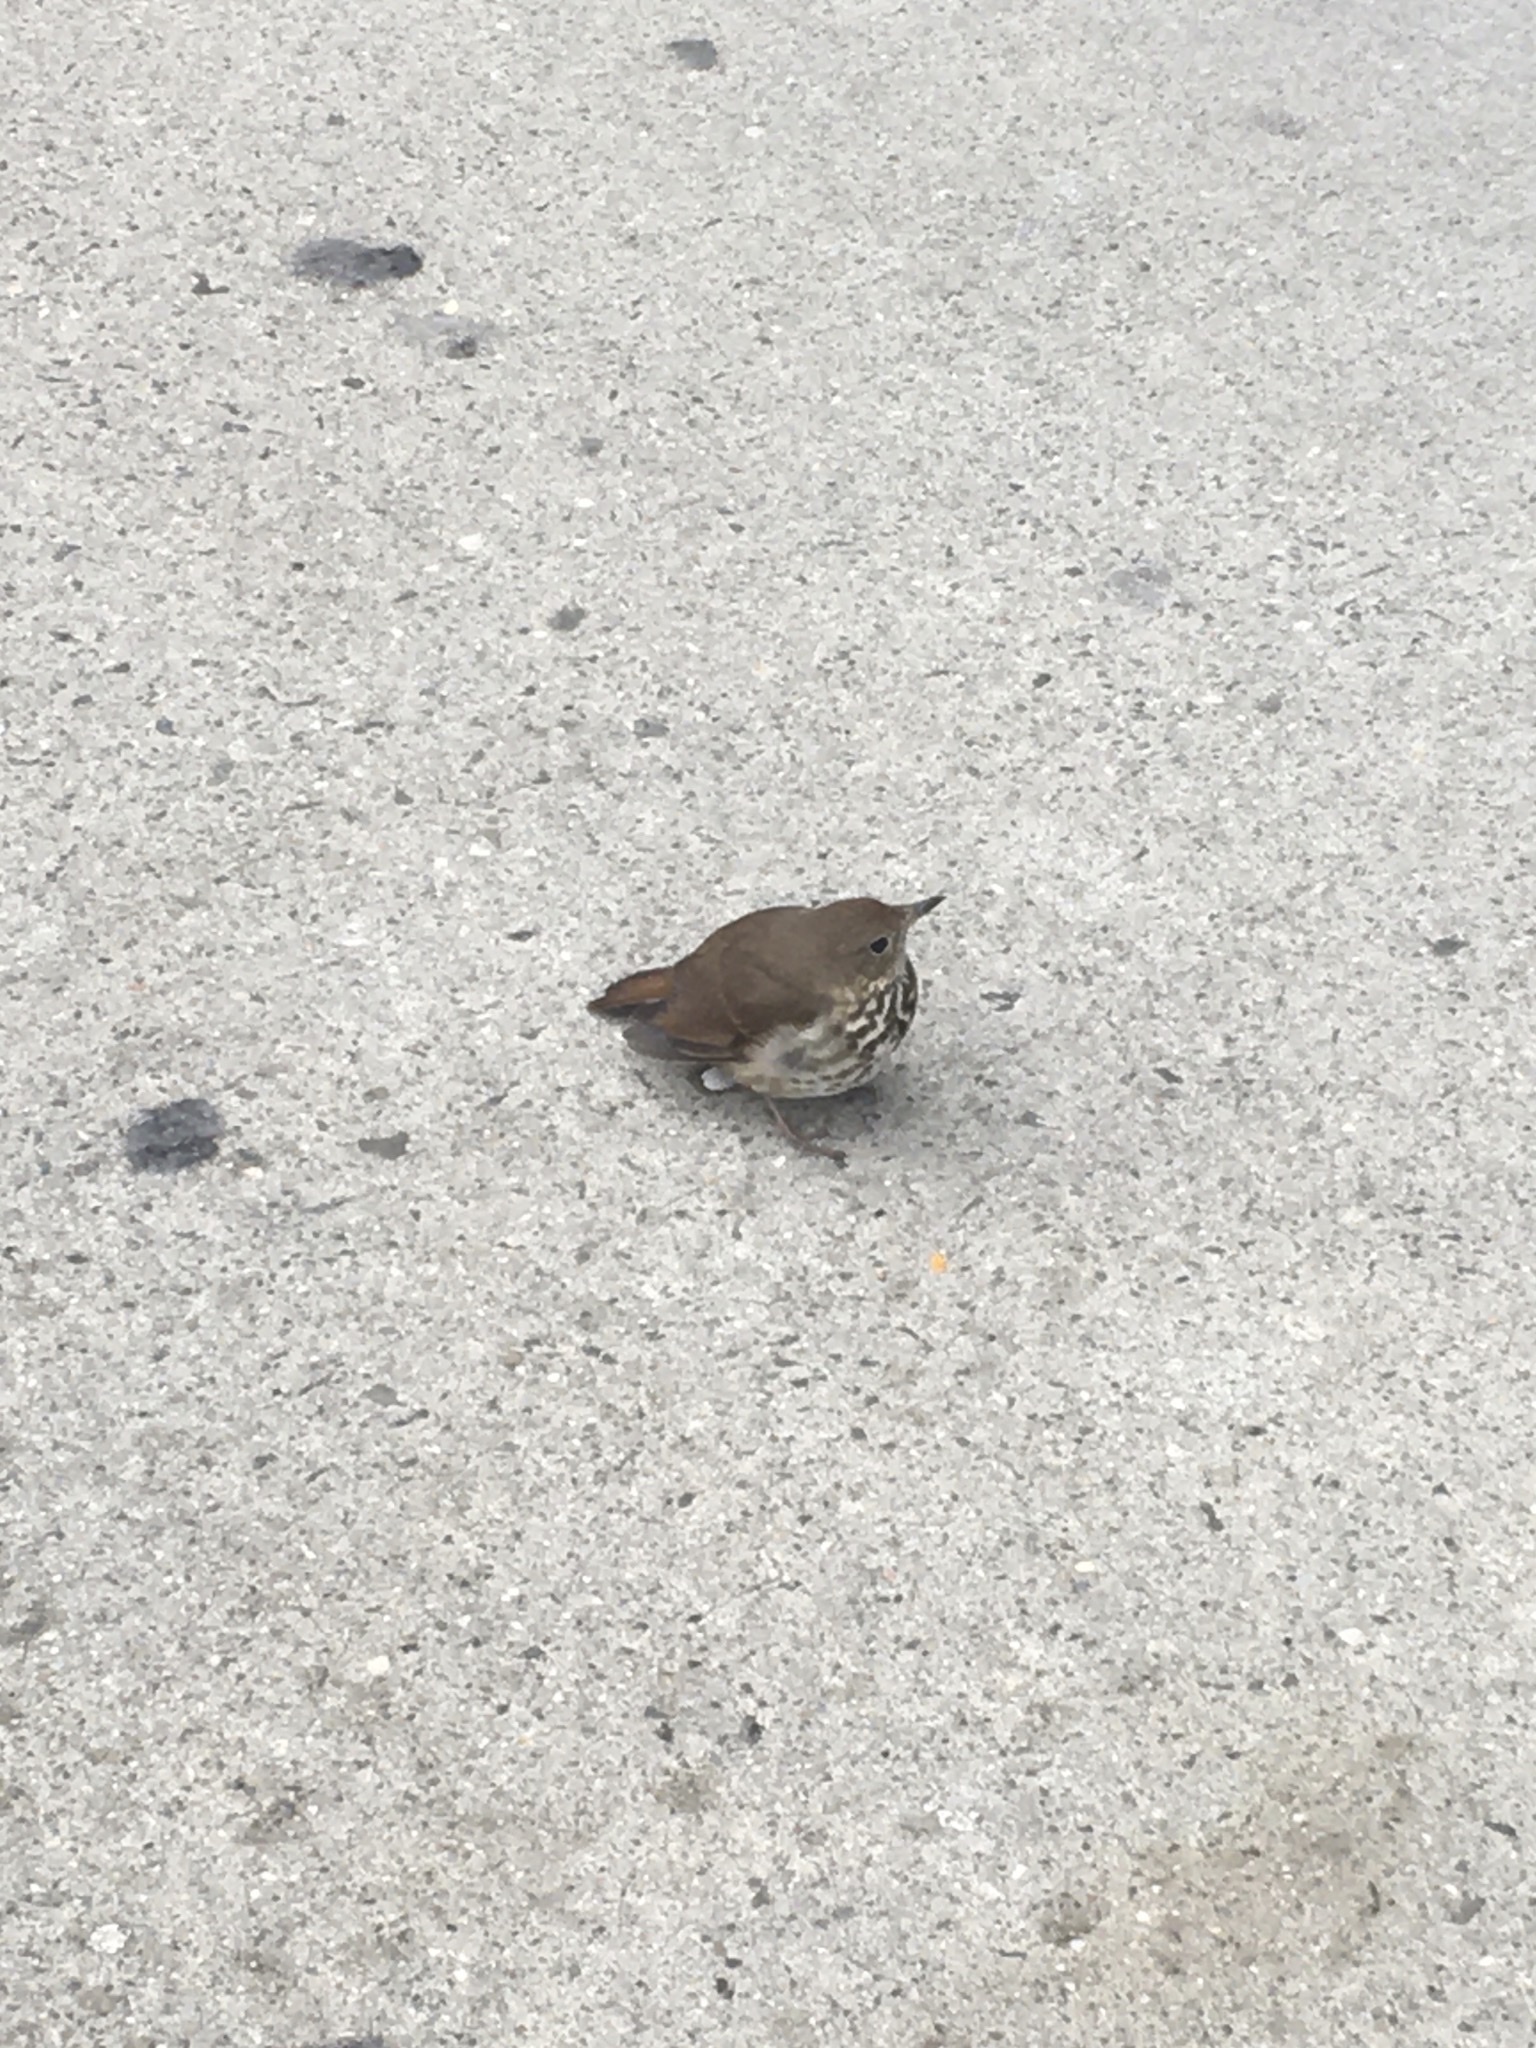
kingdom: Animalia
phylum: Chordata
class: Aves
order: Passeriformes
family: Turdidae
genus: Catharus
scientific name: Catharus guttatus
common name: Hermit thrush
